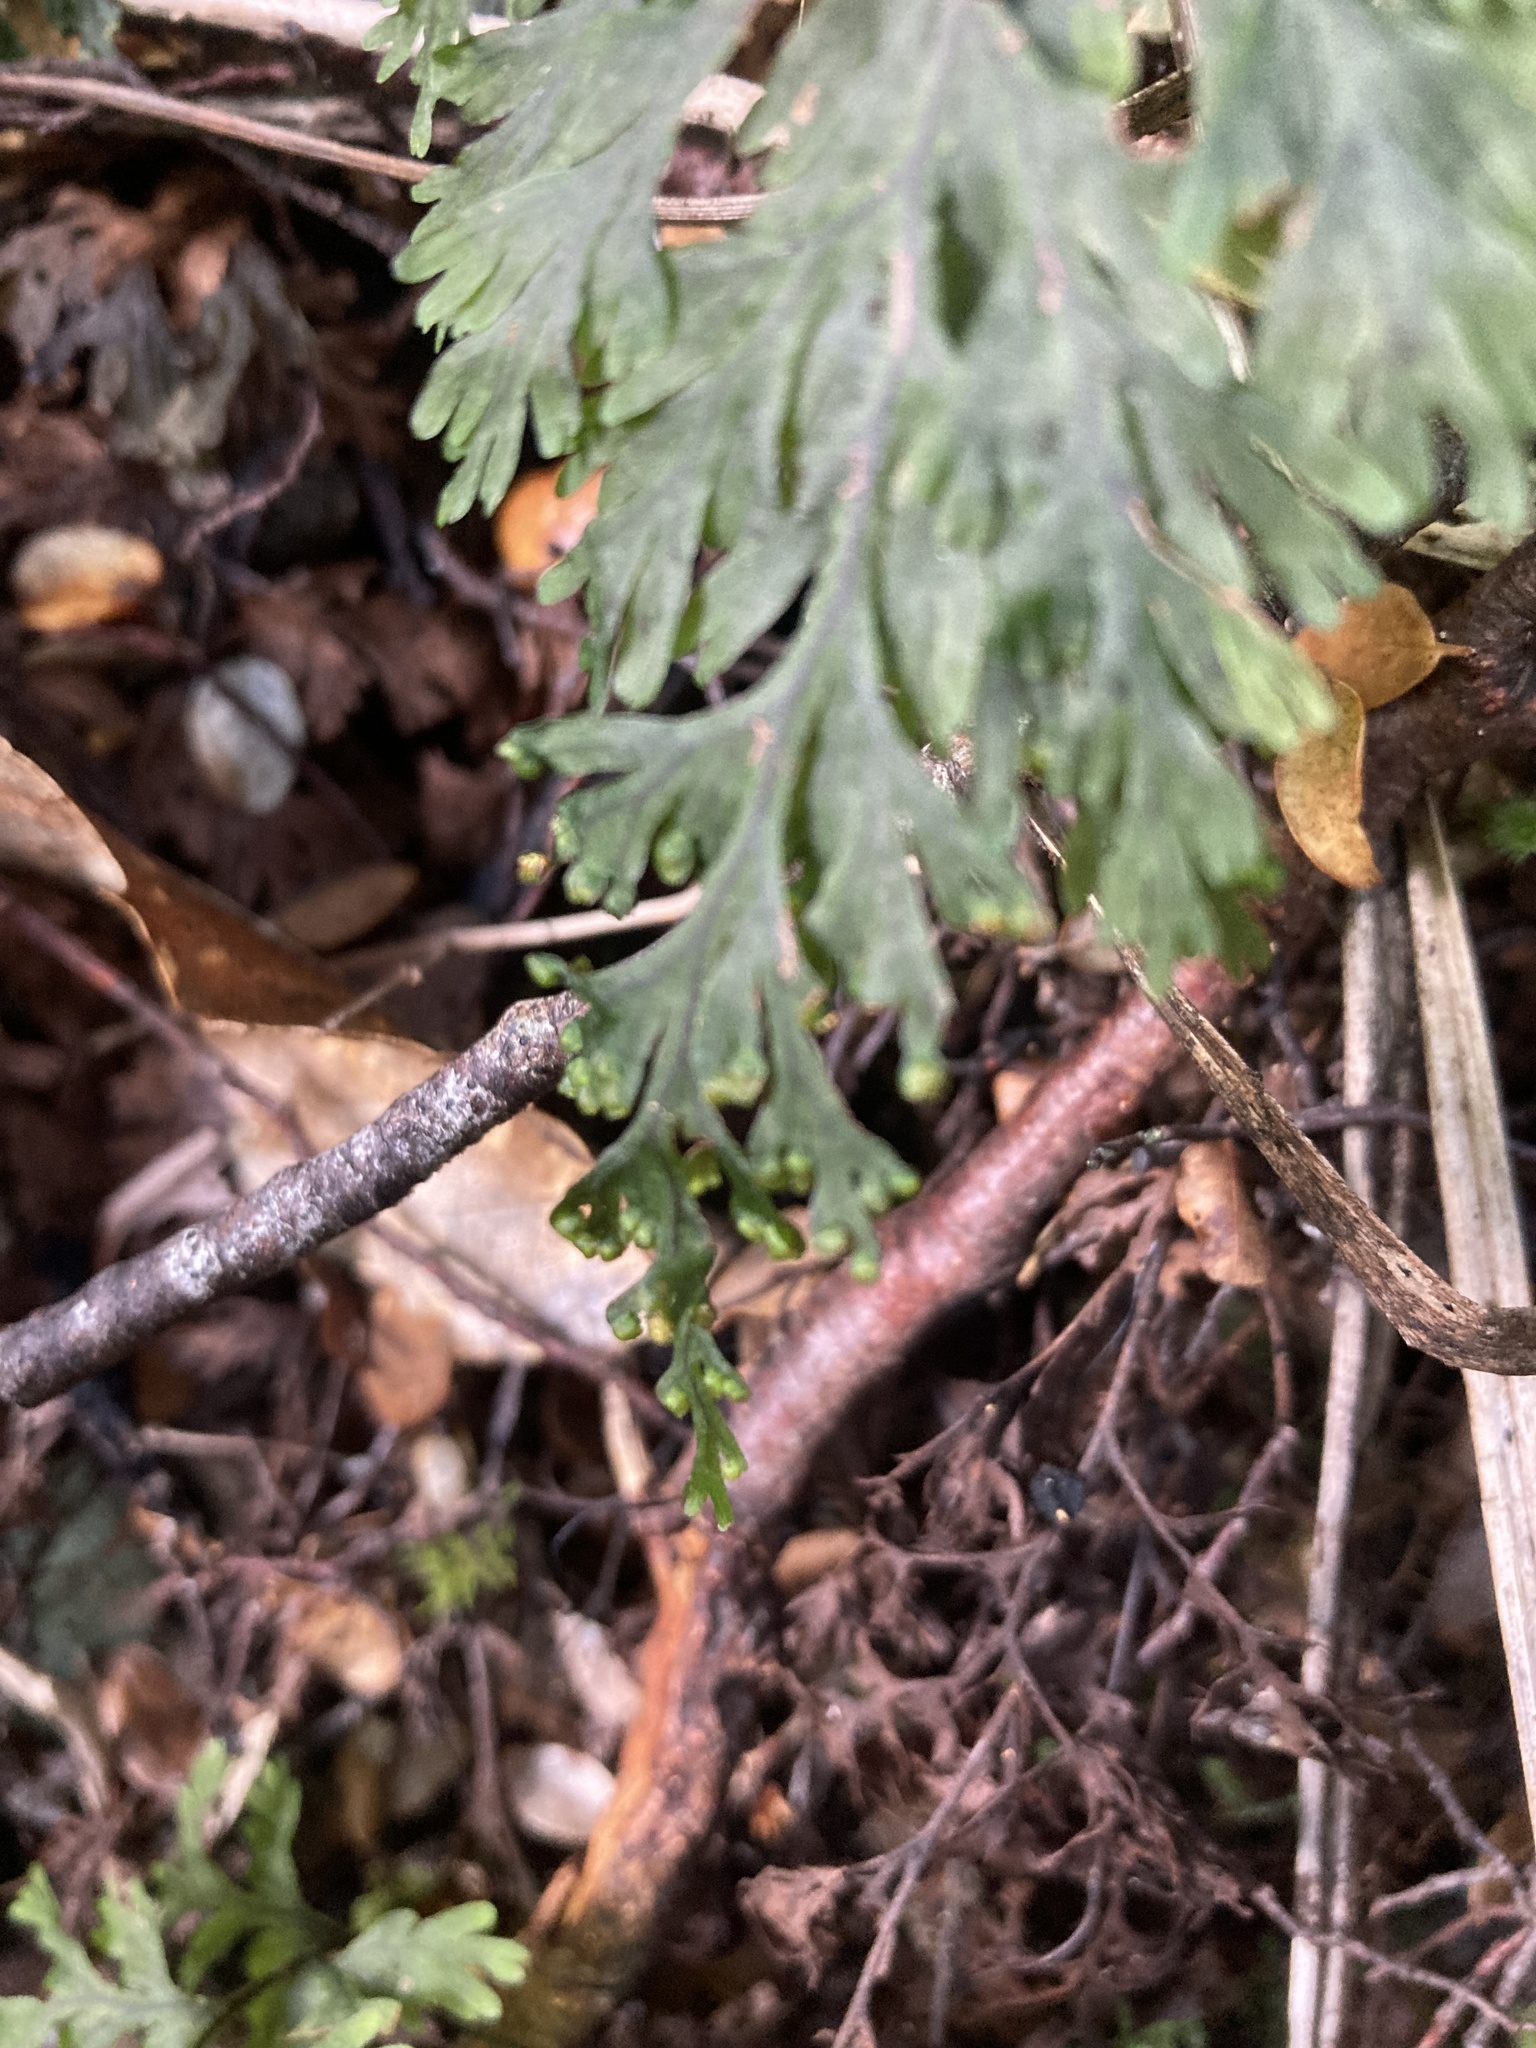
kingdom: Plantae
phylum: Tracheophyta
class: Polypodiopsida
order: Hymenophyllales
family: Hymenophyllaceae
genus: Hymenophyllum
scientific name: Hymenophyllum scabrum
